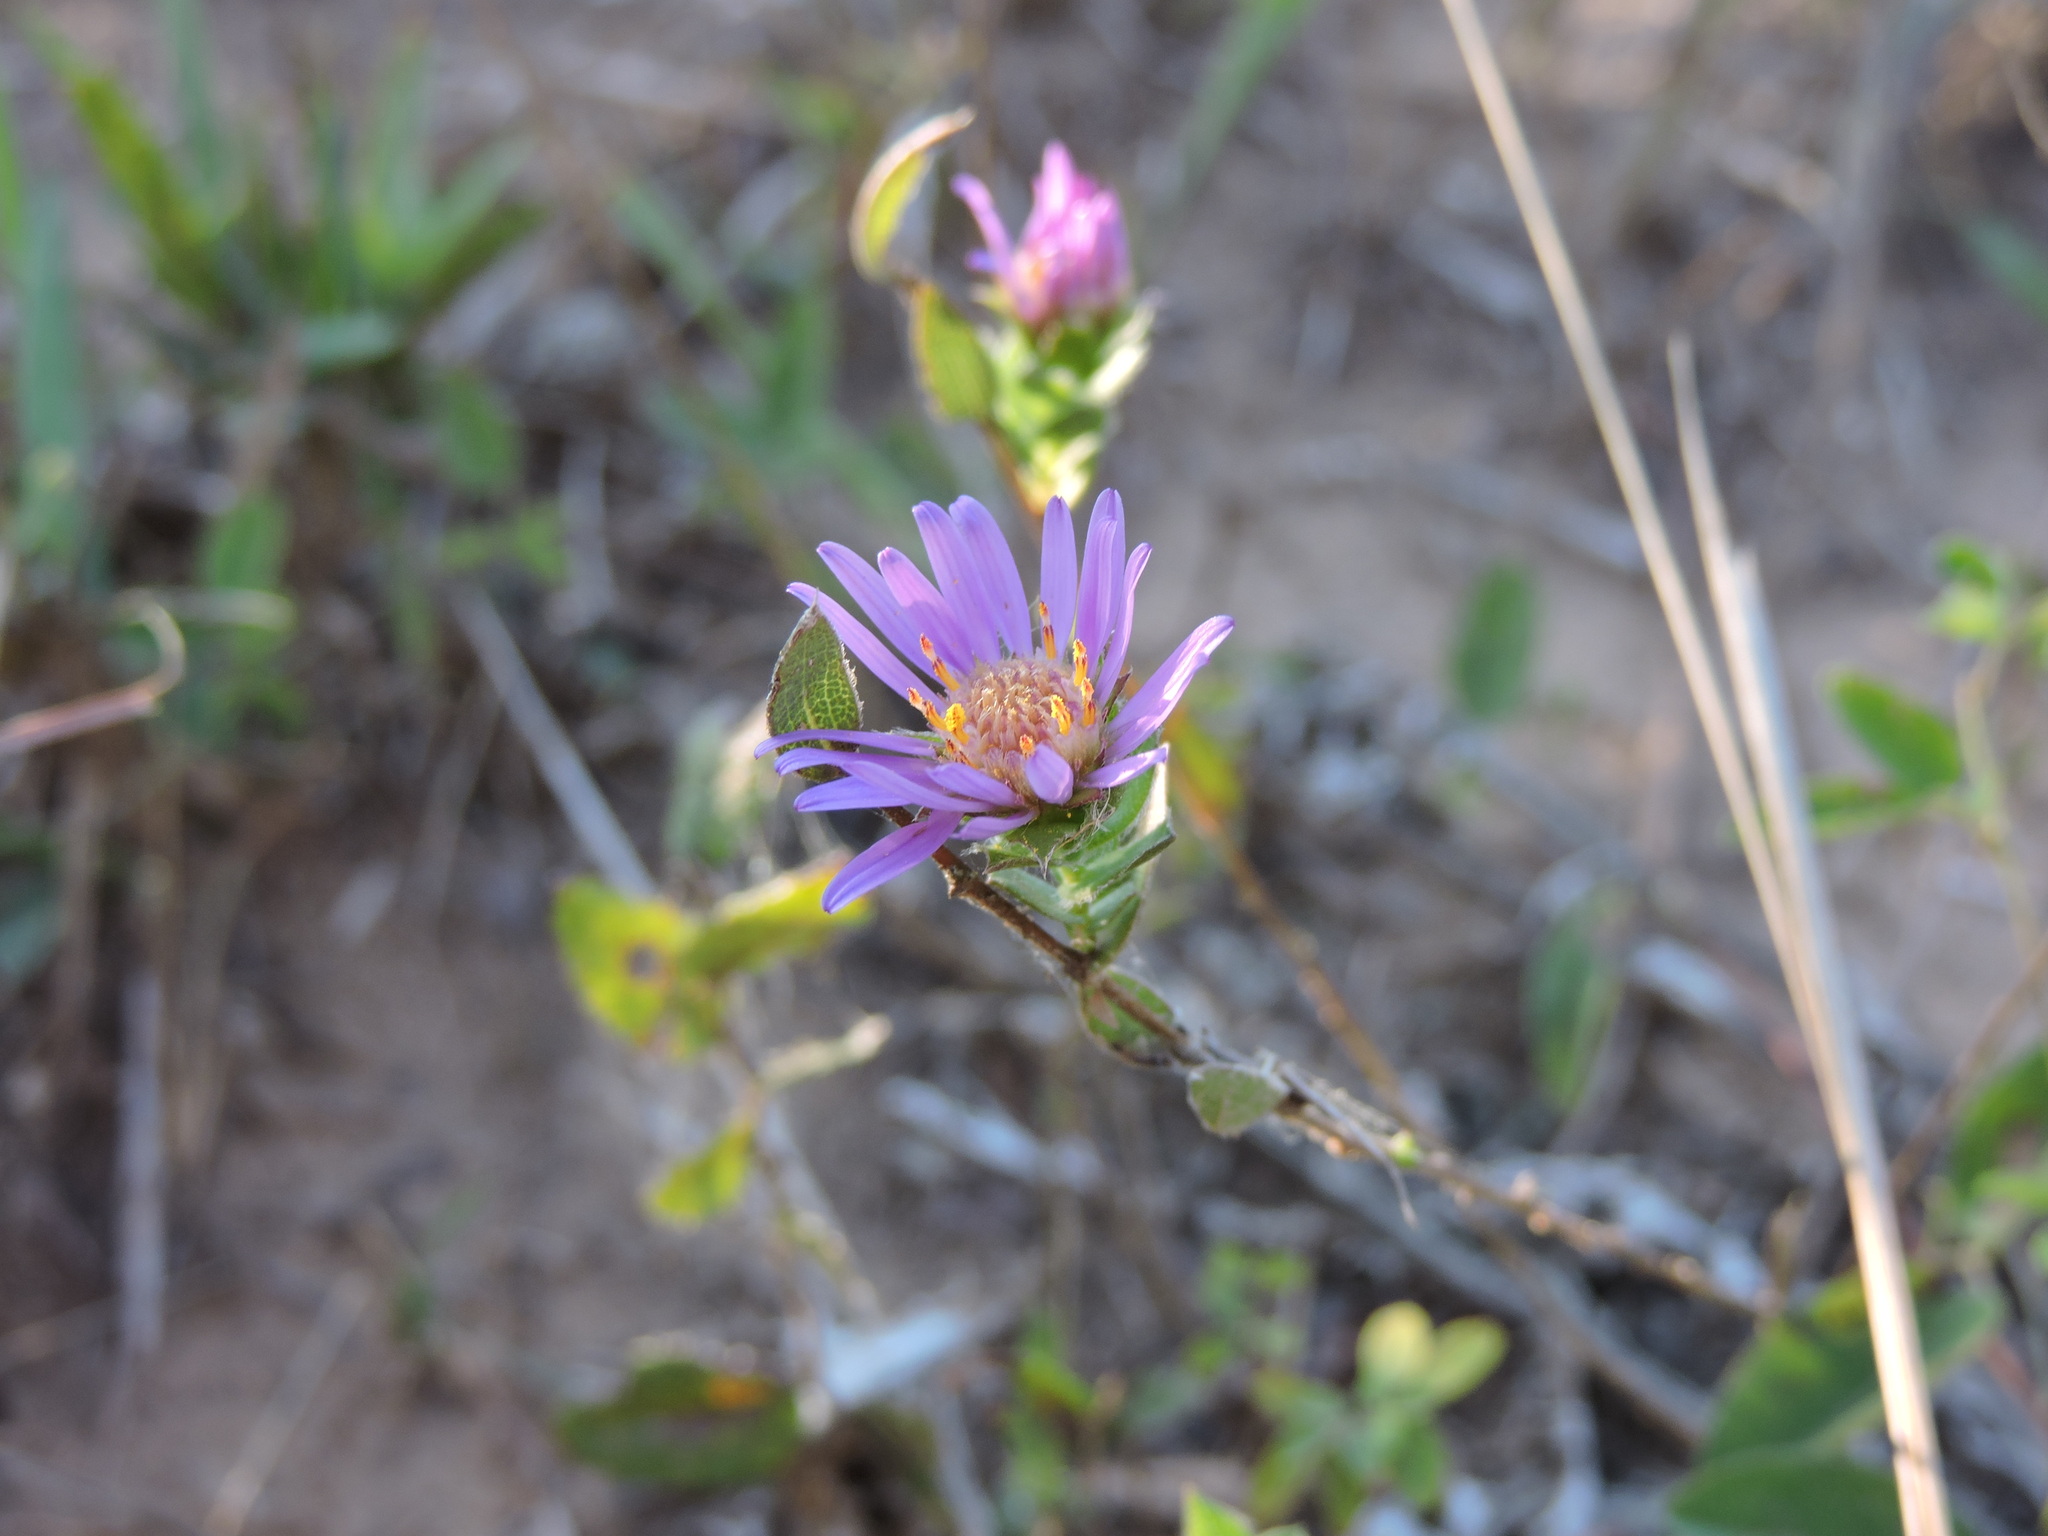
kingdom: Plantae
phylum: Tracheophyta
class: Magnoliopsida
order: Asterales
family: Asteraceae
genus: Symphyotrichum
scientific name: Symphyotrichum pratense
